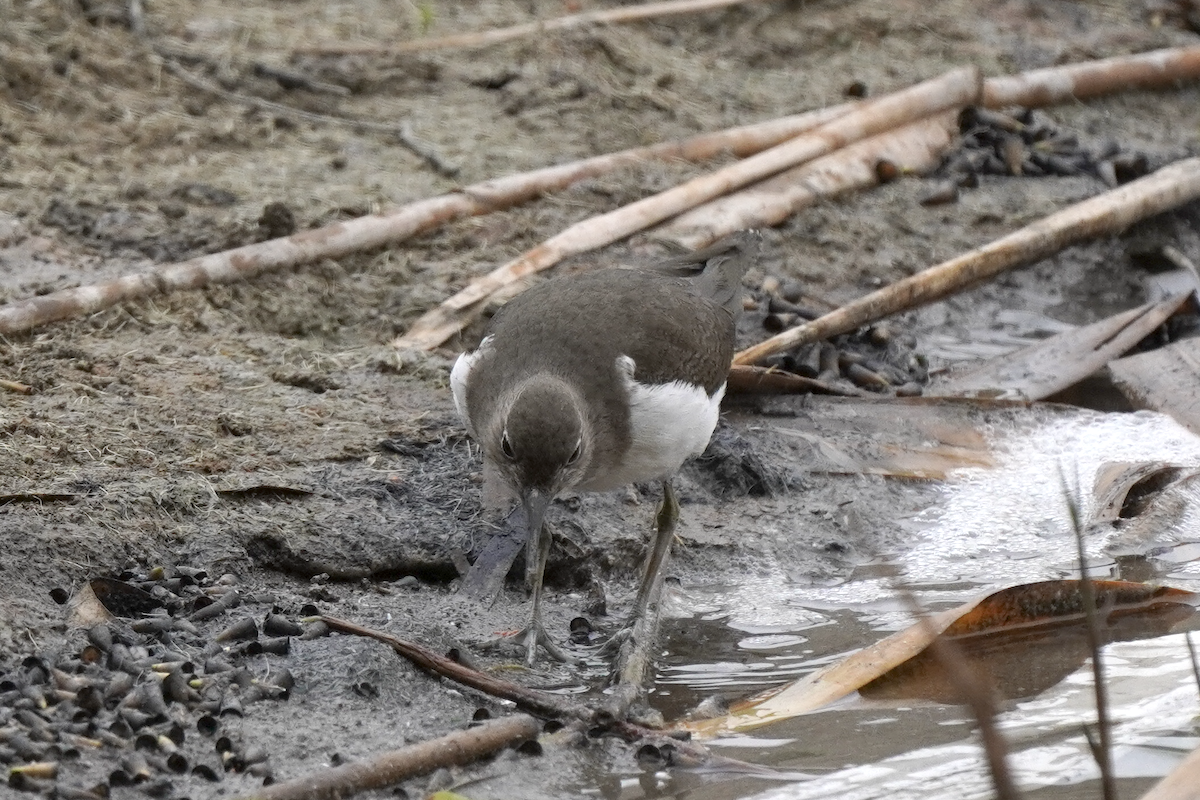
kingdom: Animalia
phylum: Chordata
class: Aves
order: Charadriiformes
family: Scolopacidae
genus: Actitis
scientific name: Actitis hypoleucos
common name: Common sandpiper
